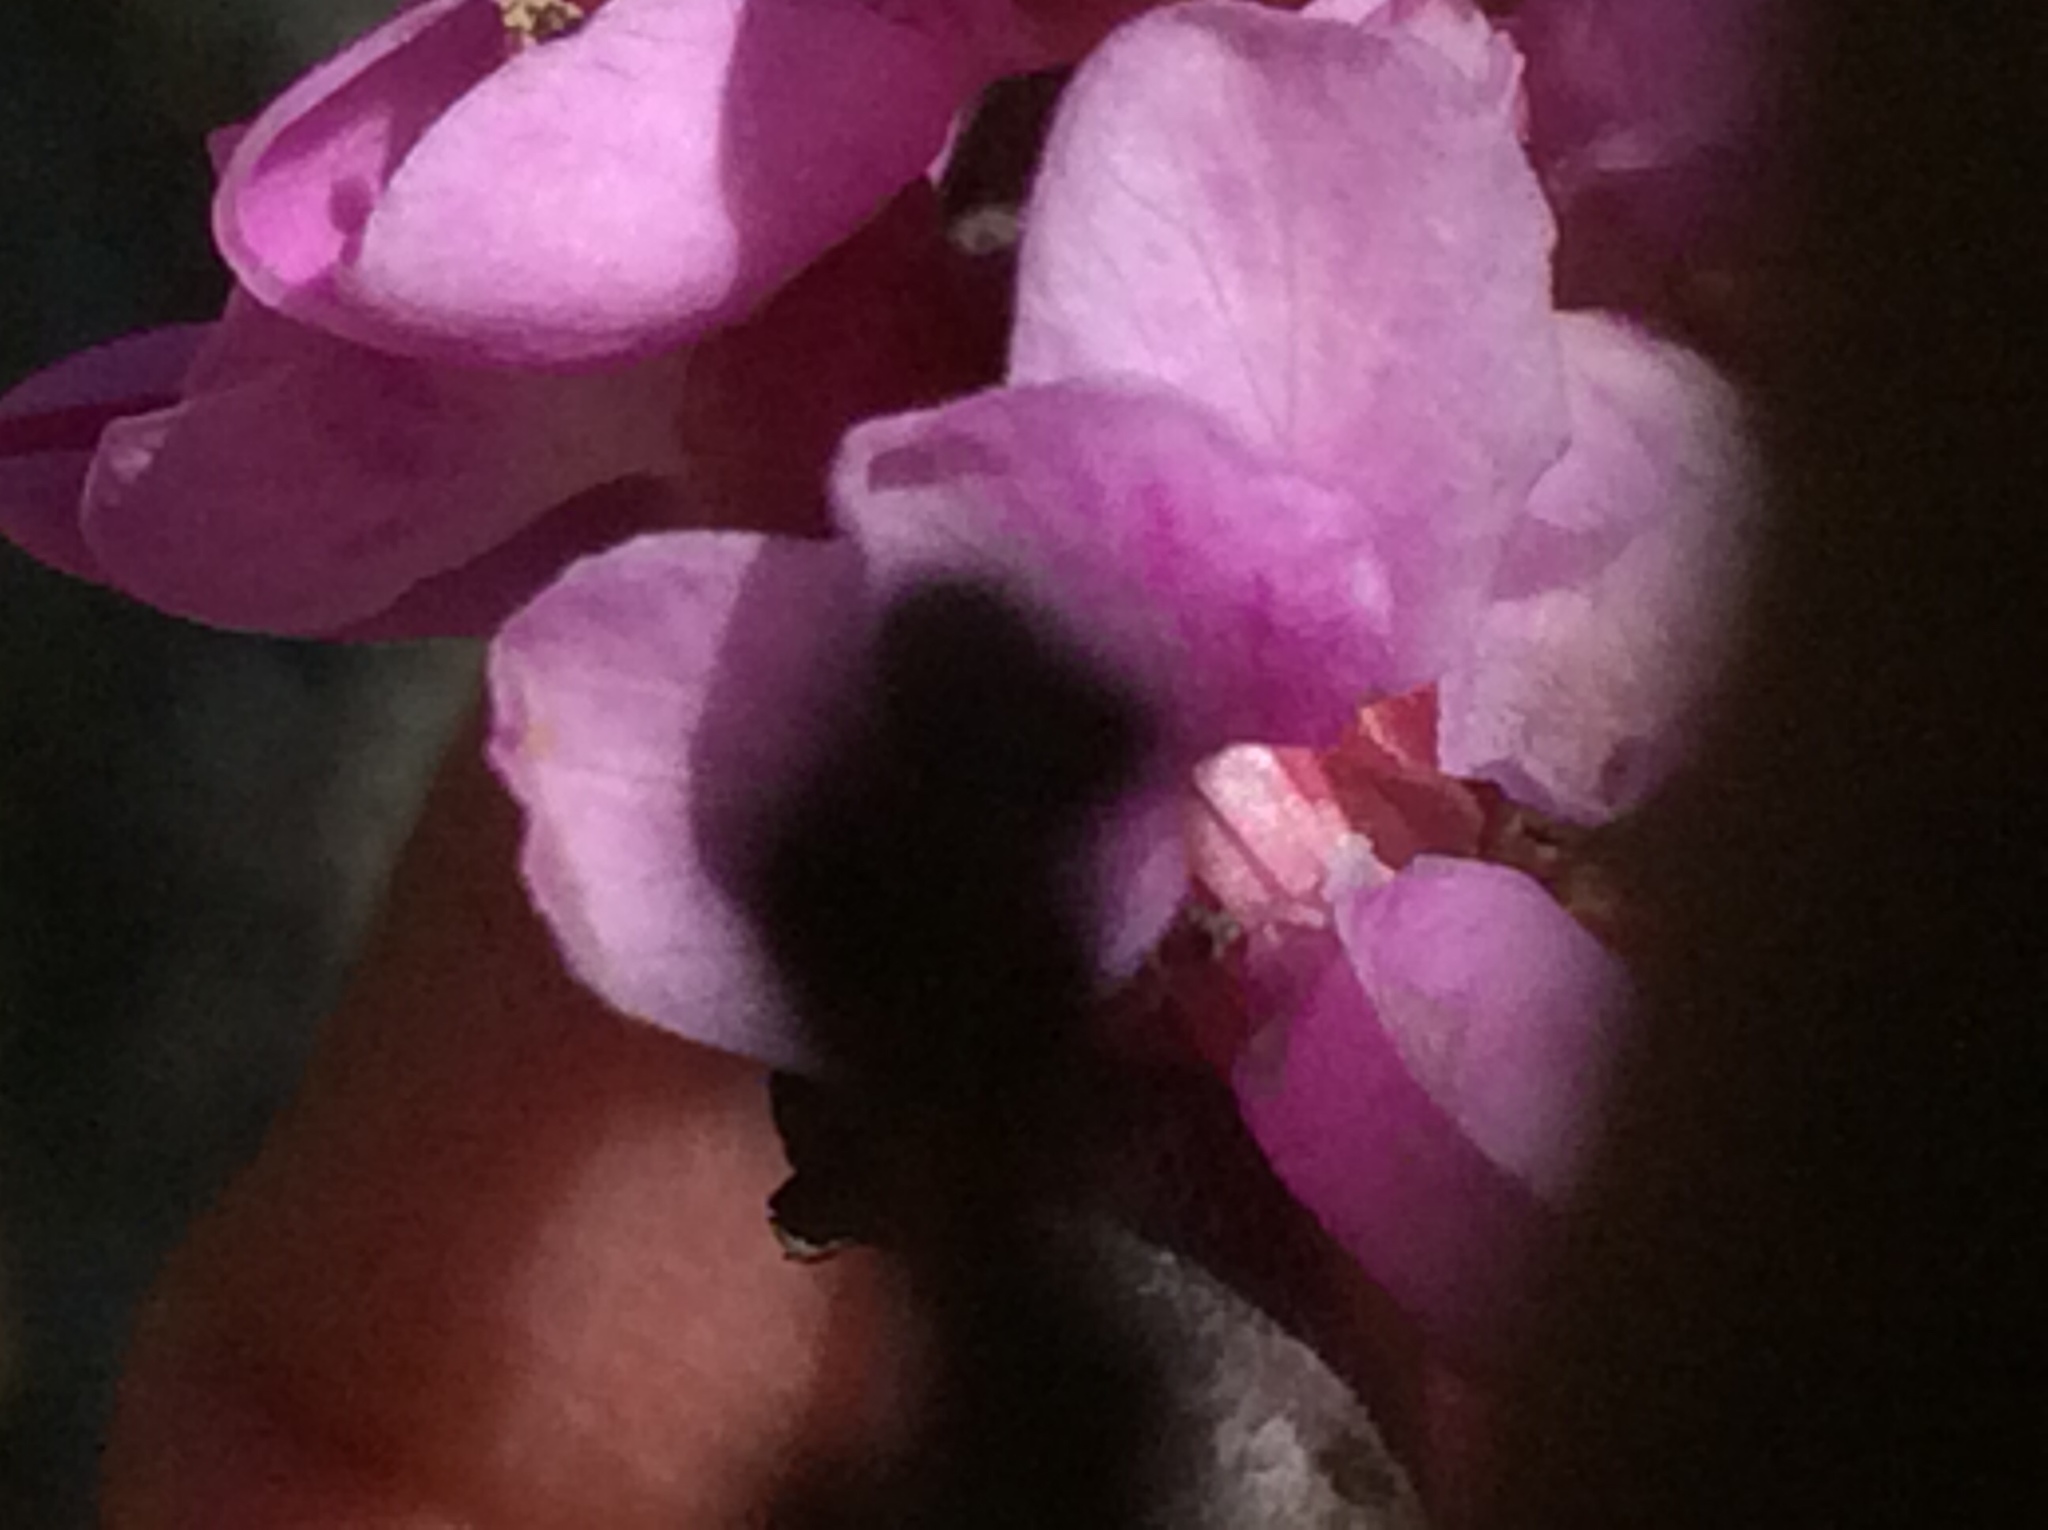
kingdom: Plantae
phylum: Tracheophyta
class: Magnoliopsida
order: Fabales
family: Fabaceae
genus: Cercis
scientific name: Cercis canadensis
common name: Eastern redbud
